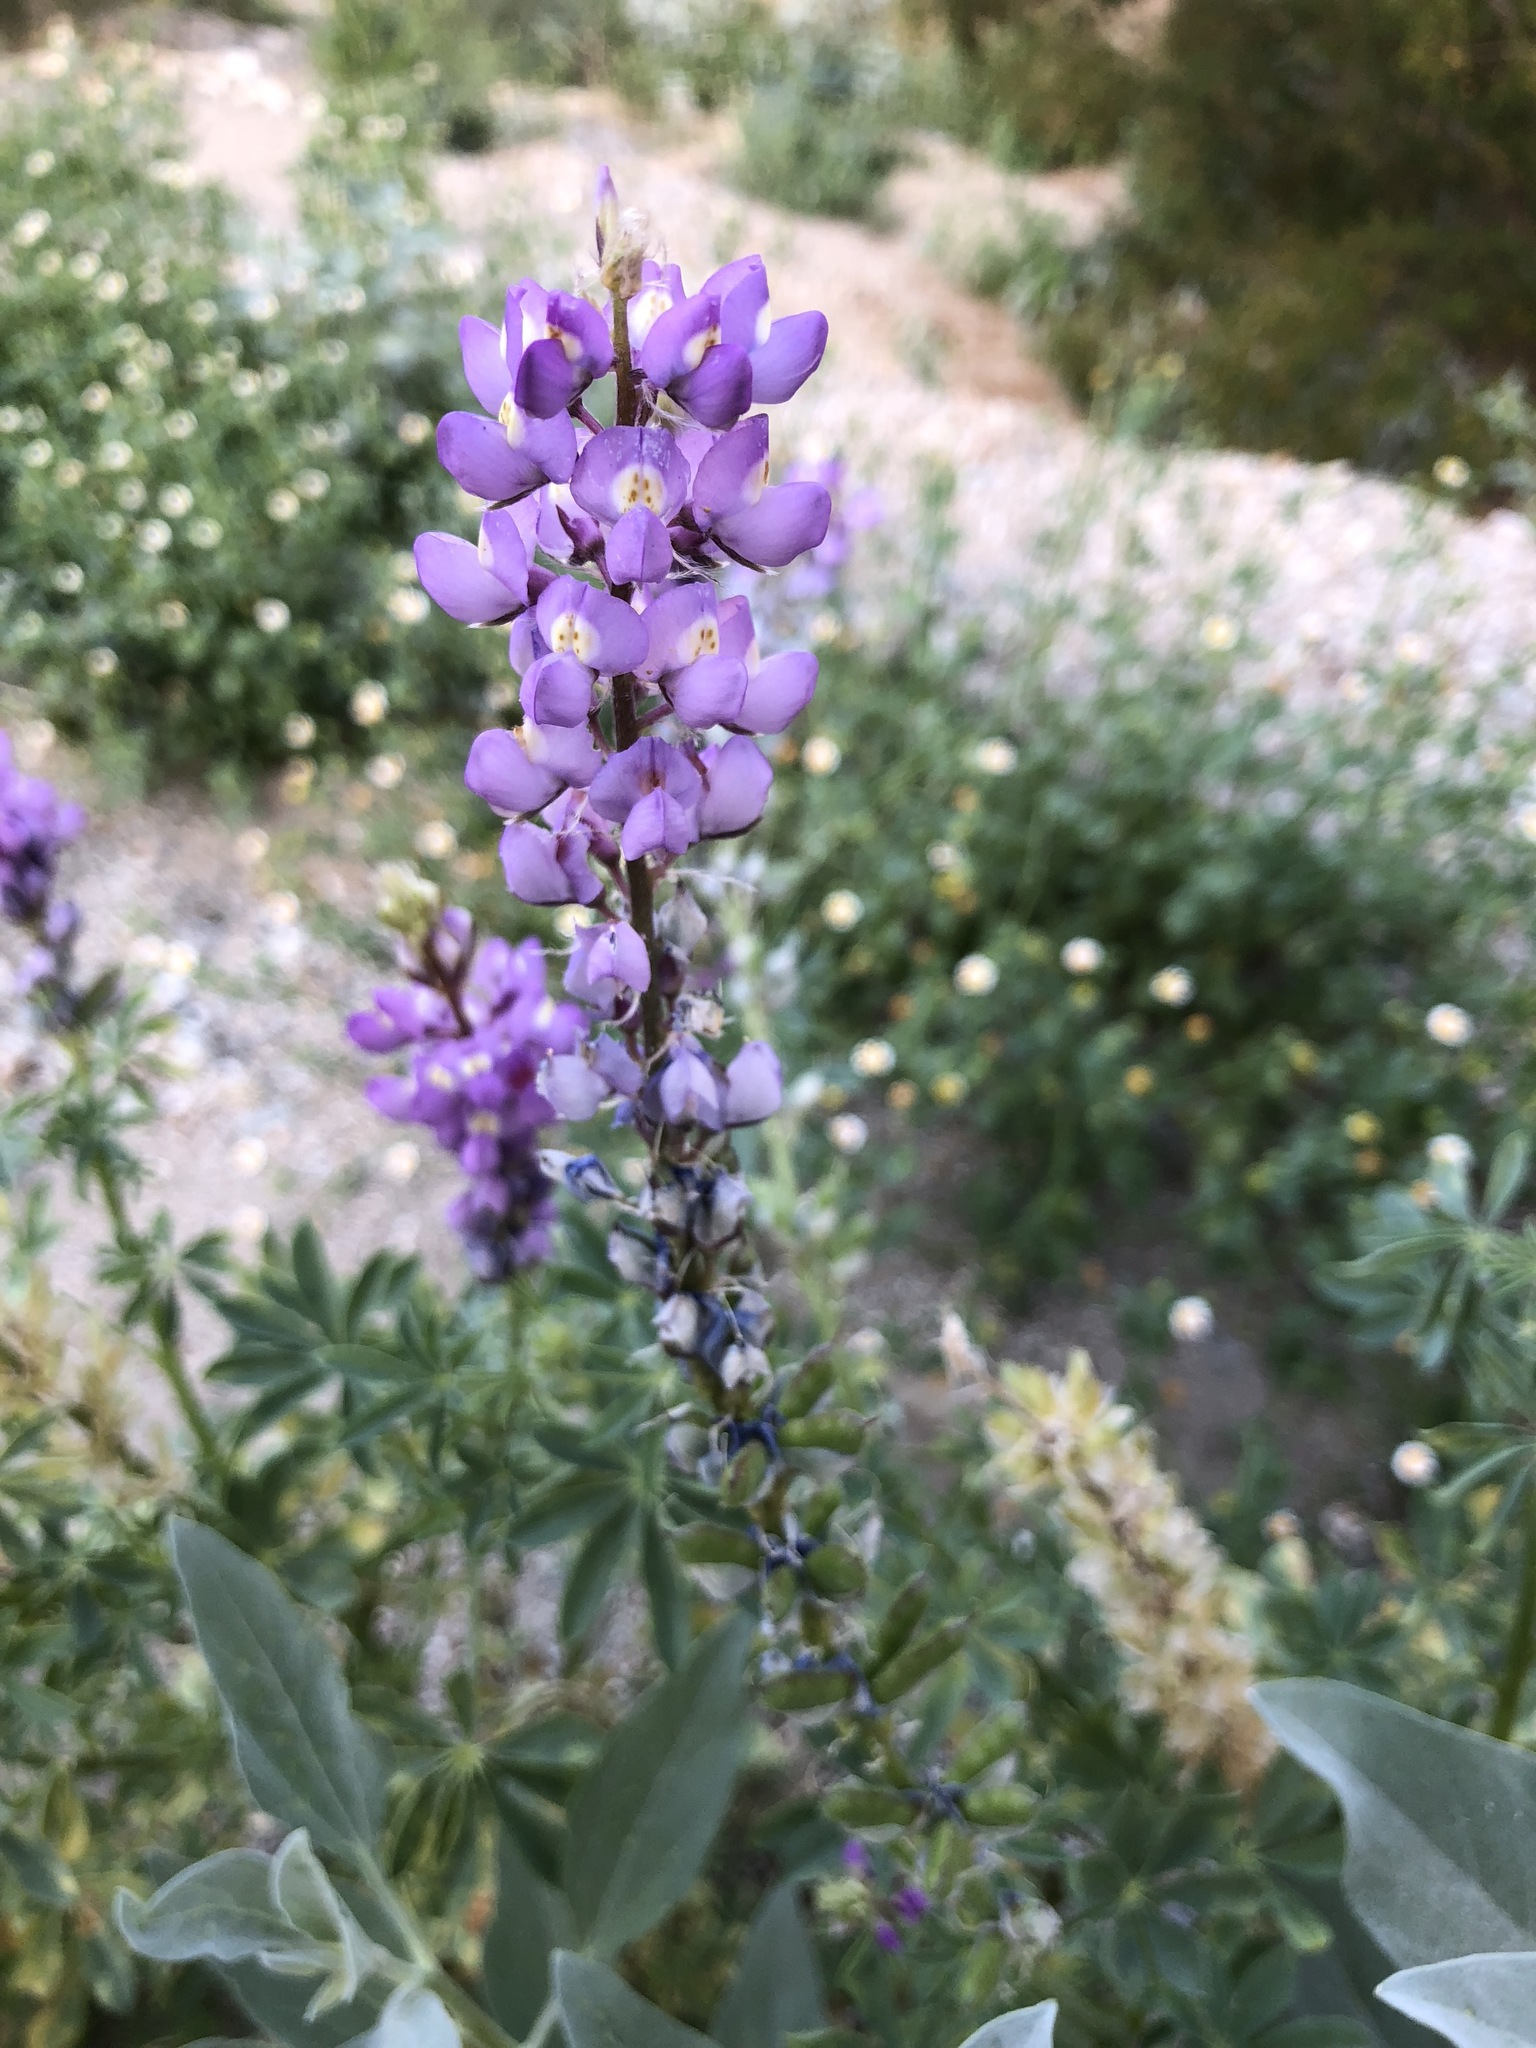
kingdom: Plantae
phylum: Tracheophyta
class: Magnoliopsida
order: Fabales
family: Fabaceae
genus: Lupinus
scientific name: Lupinus arizonicus
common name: Arizona lupine
